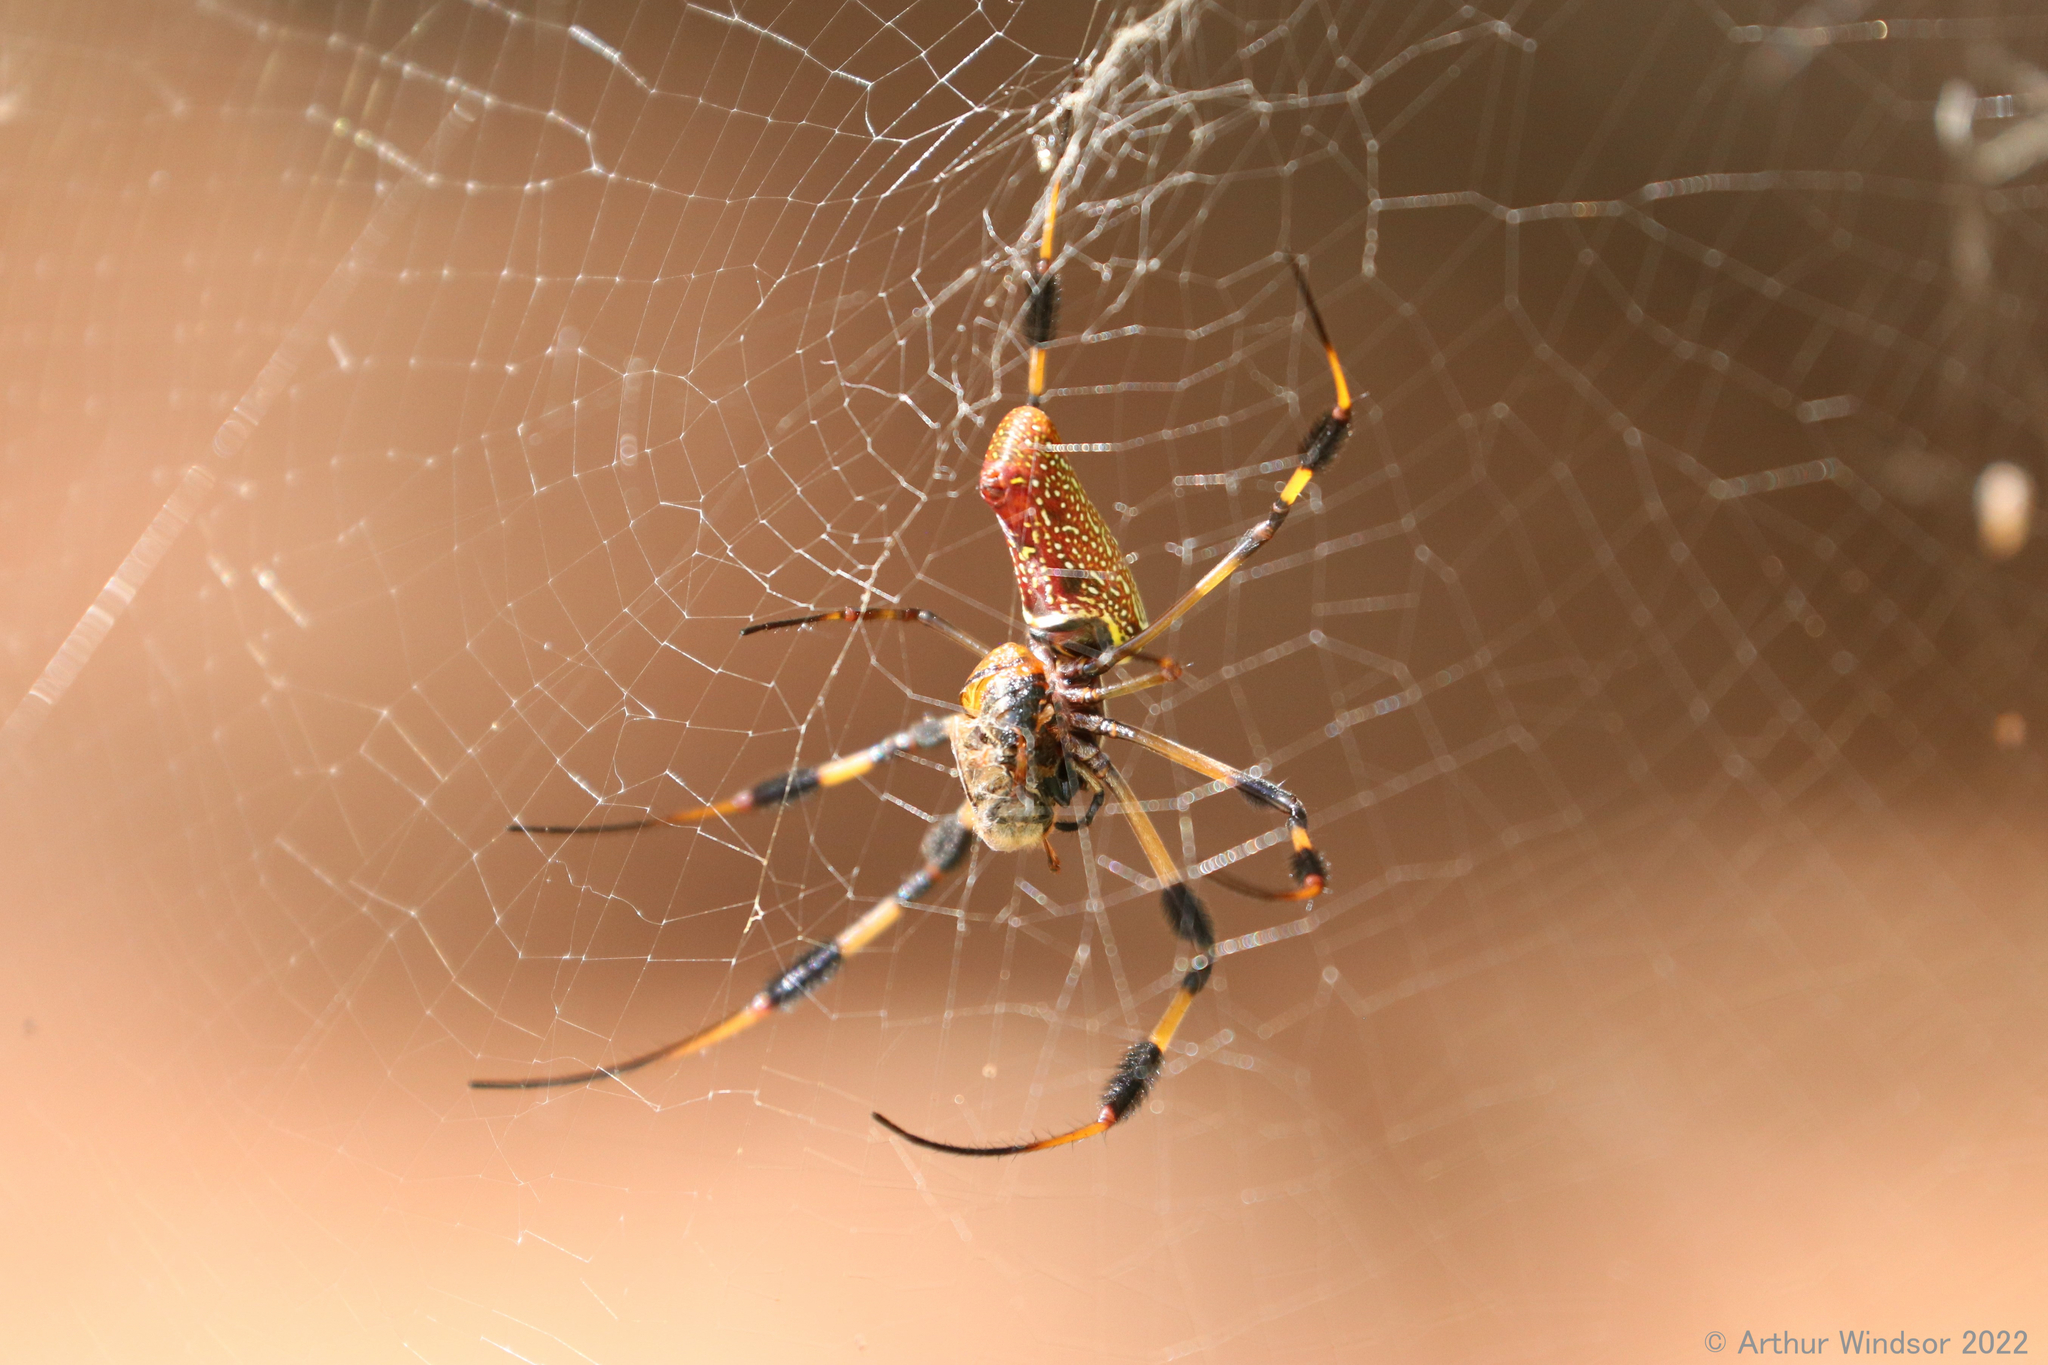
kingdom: Animalia
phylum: Arthropoda
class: Arachnida
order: Araneae
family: Araneidae
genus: Trichonephila
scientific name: Trichonephila clavipes
